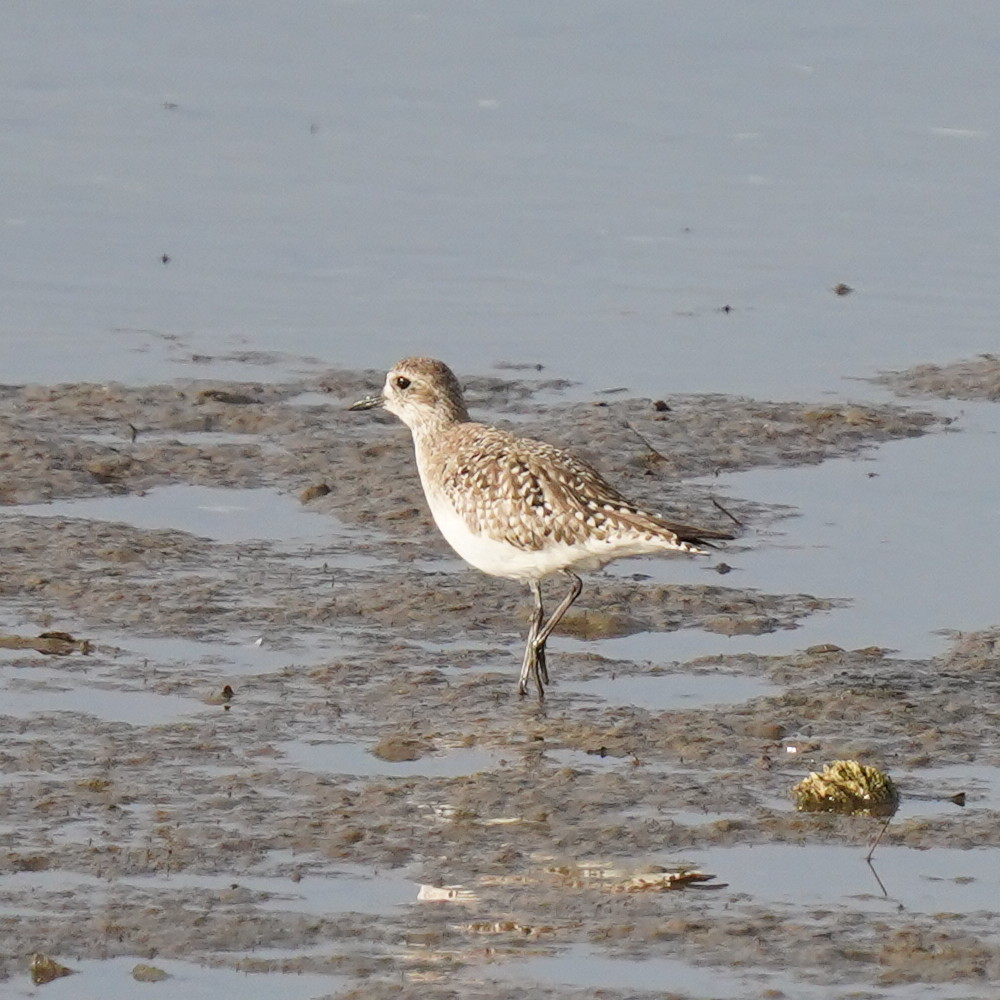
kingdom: Animalia
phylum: Chordata
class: Aves
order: Charadriiformes
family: Charadriidae
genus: Pluvialis
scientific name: Pluvialis squatarola
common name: Grey plover
